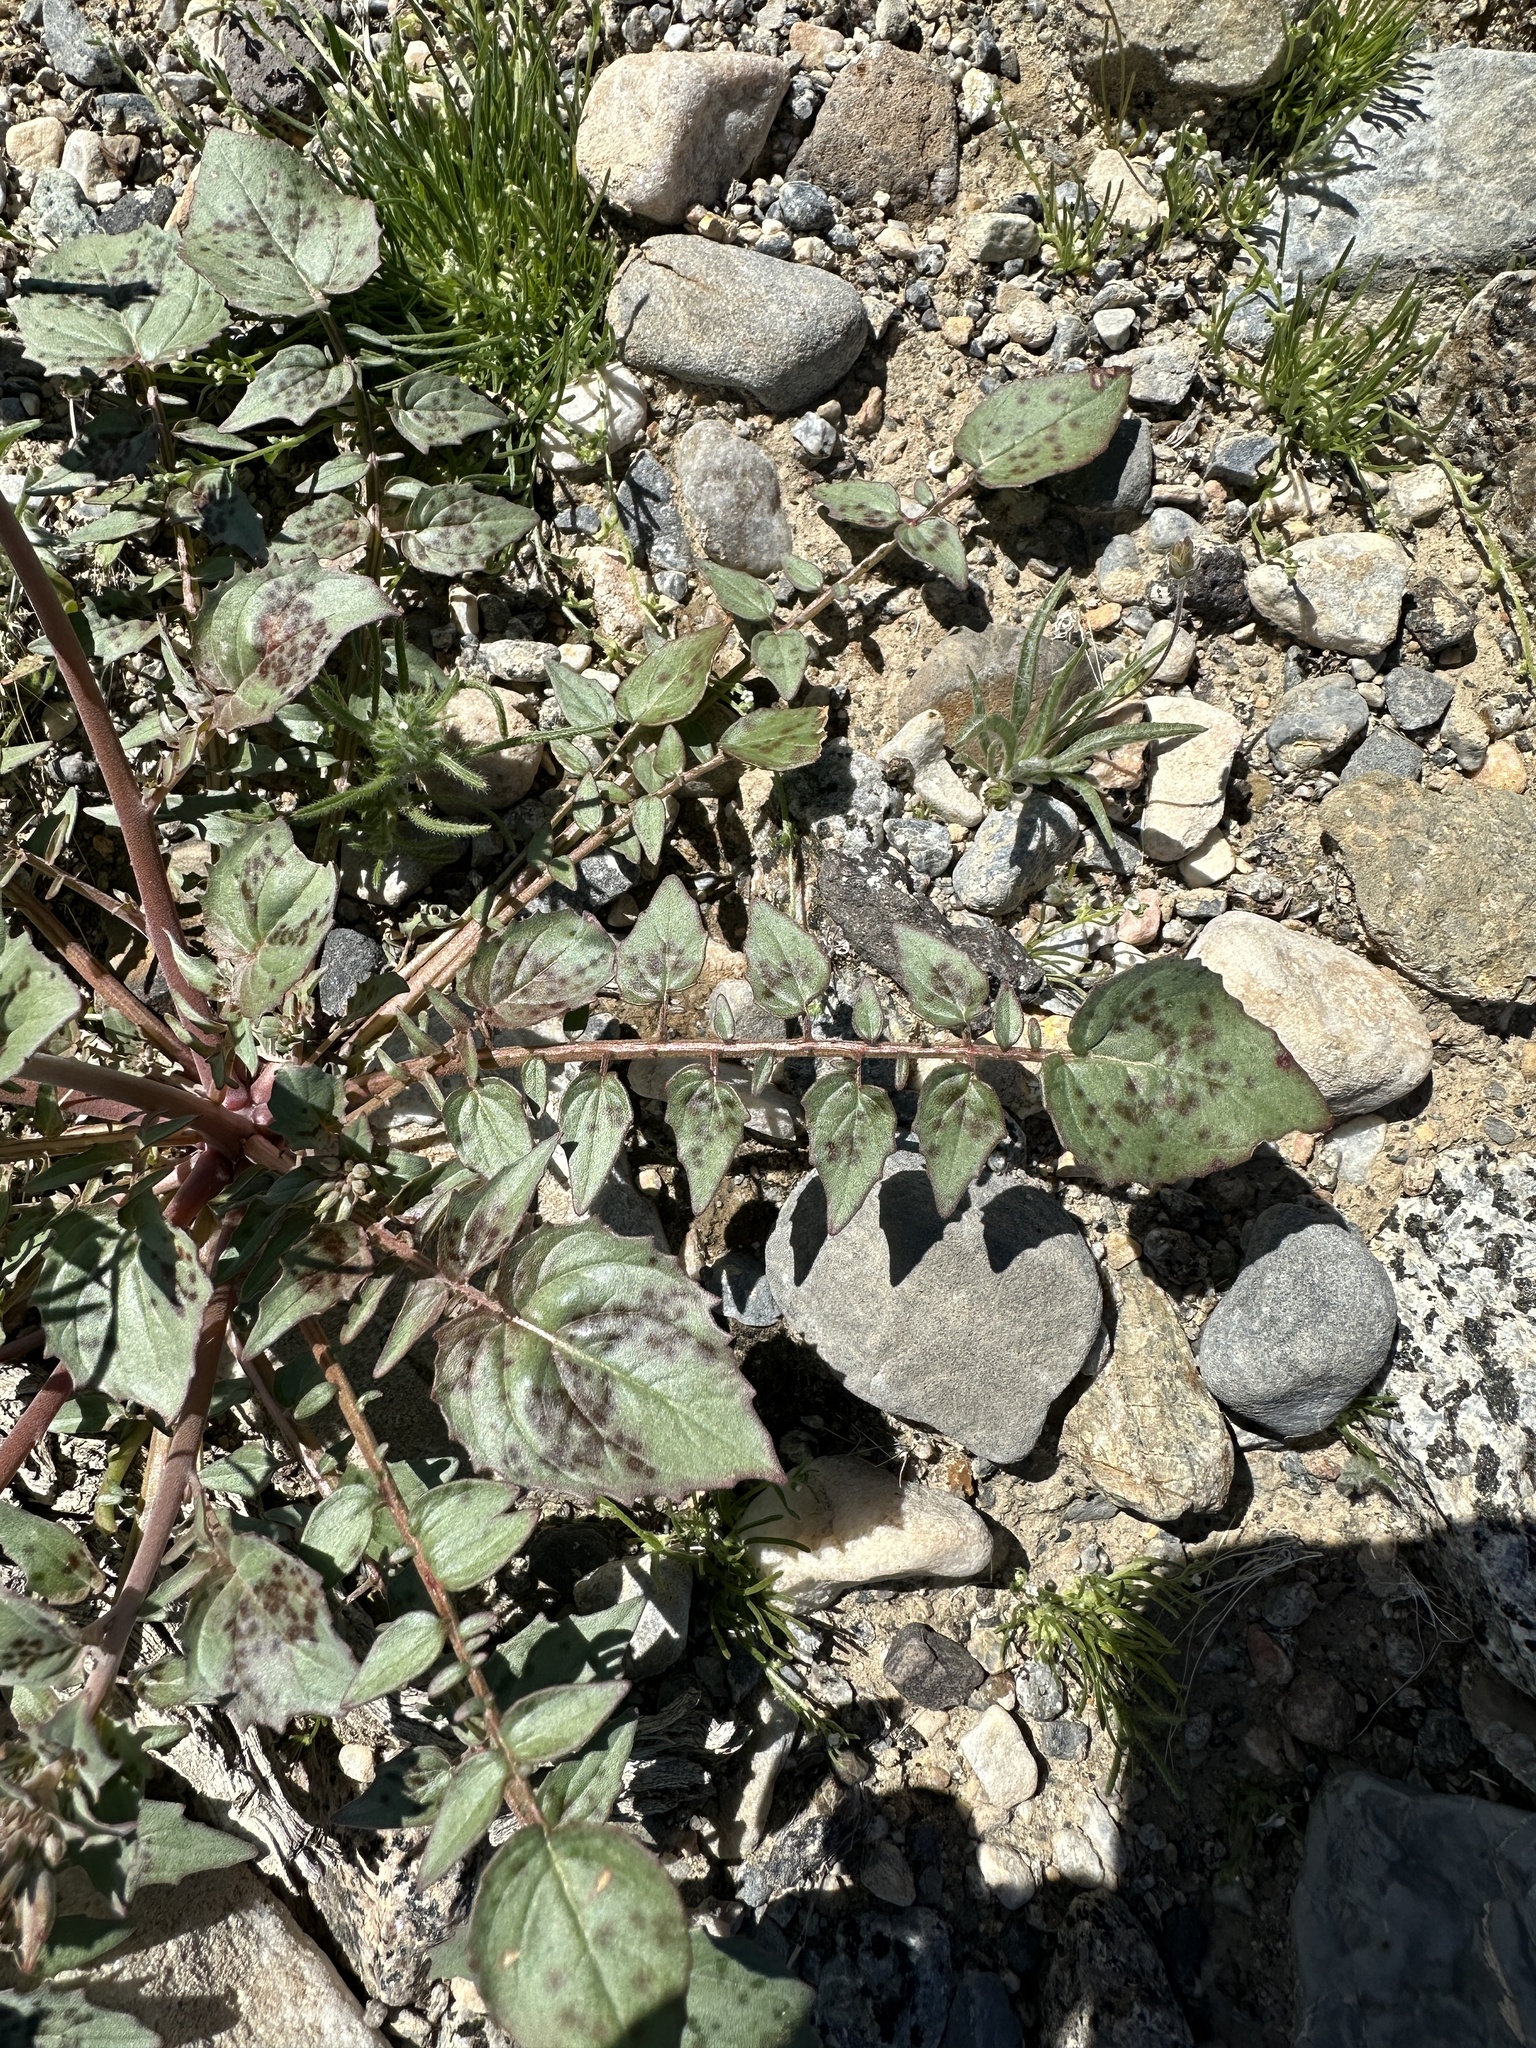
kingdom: Plantae
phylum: Tracheophyta
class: Magnoliopsida
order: Myrtales
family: Onagraceae
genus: Chylismia
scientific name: Chylismia claviformis
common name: Browneyes
